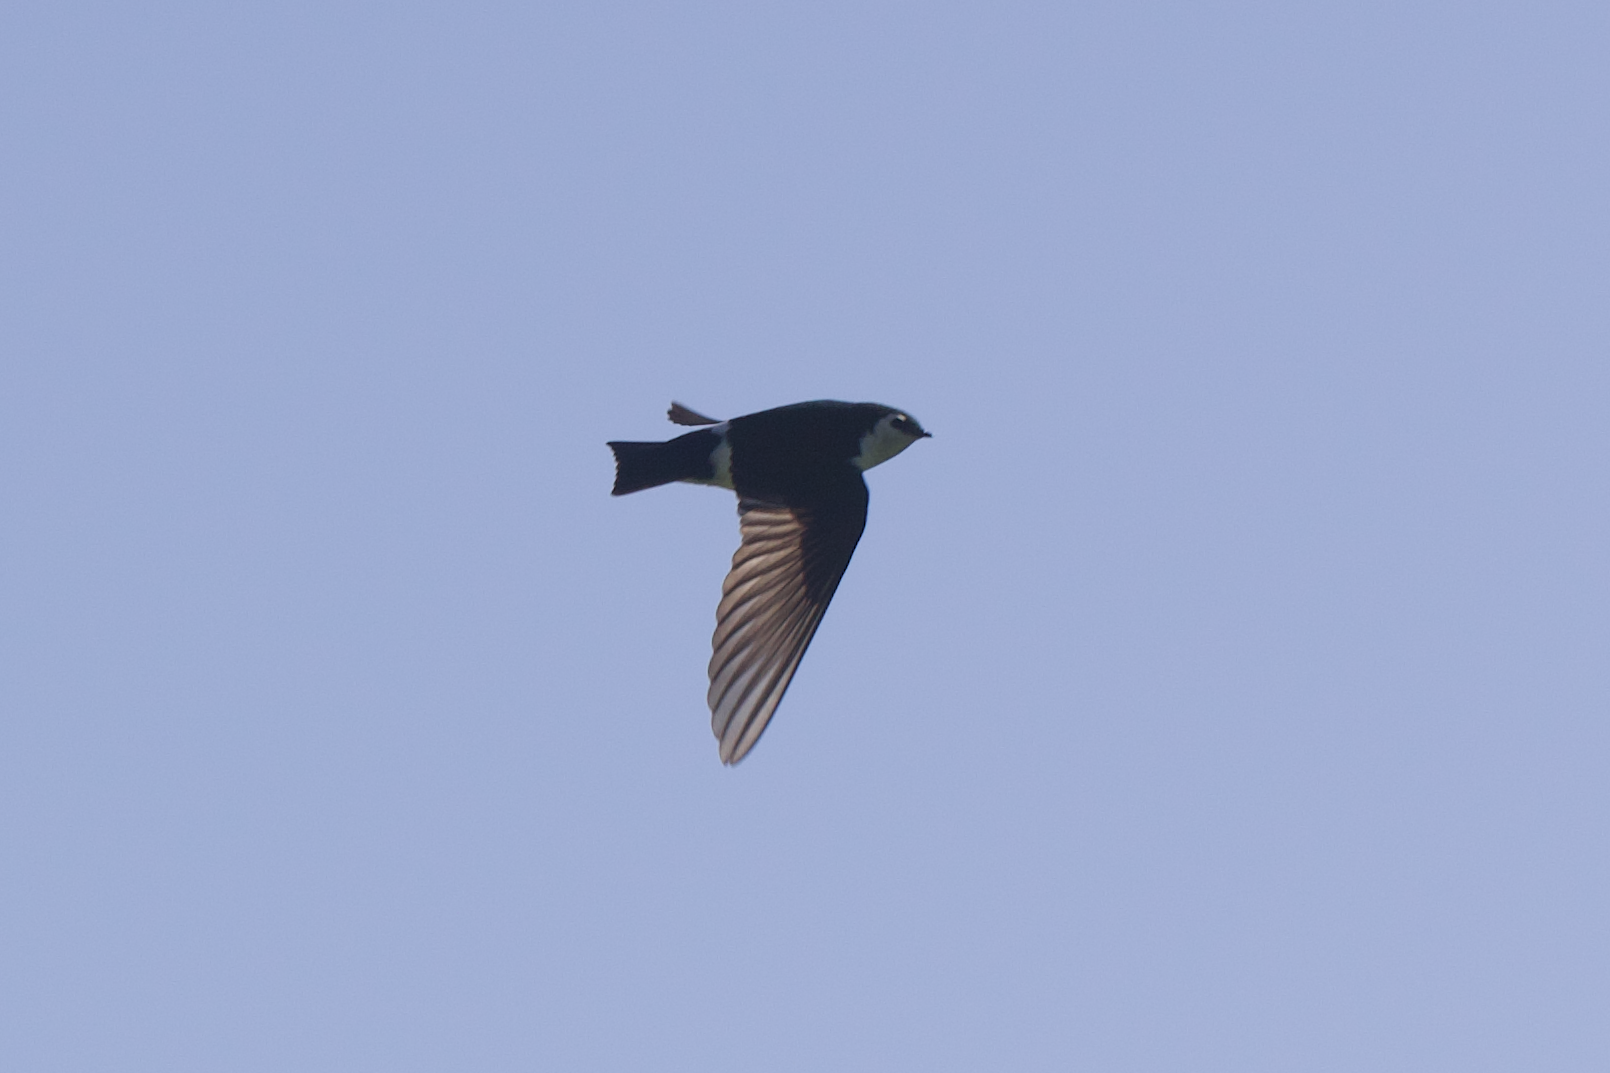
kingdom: Animalia
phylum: Chordata
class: Aves
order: Passeriformes
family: Hirundinidae
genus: Tachycineta
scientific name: Tachycineta thalassina
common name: Violet-green swallow
